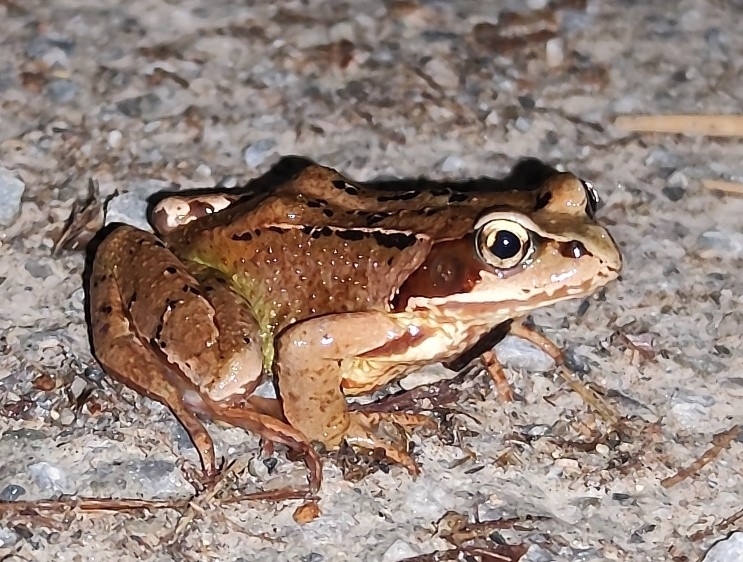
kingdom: Animalia
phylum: Chordata
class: Amphibia
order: Anura
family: Ranidae
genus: Rana
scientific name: Rana temporaria
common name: Common frog
